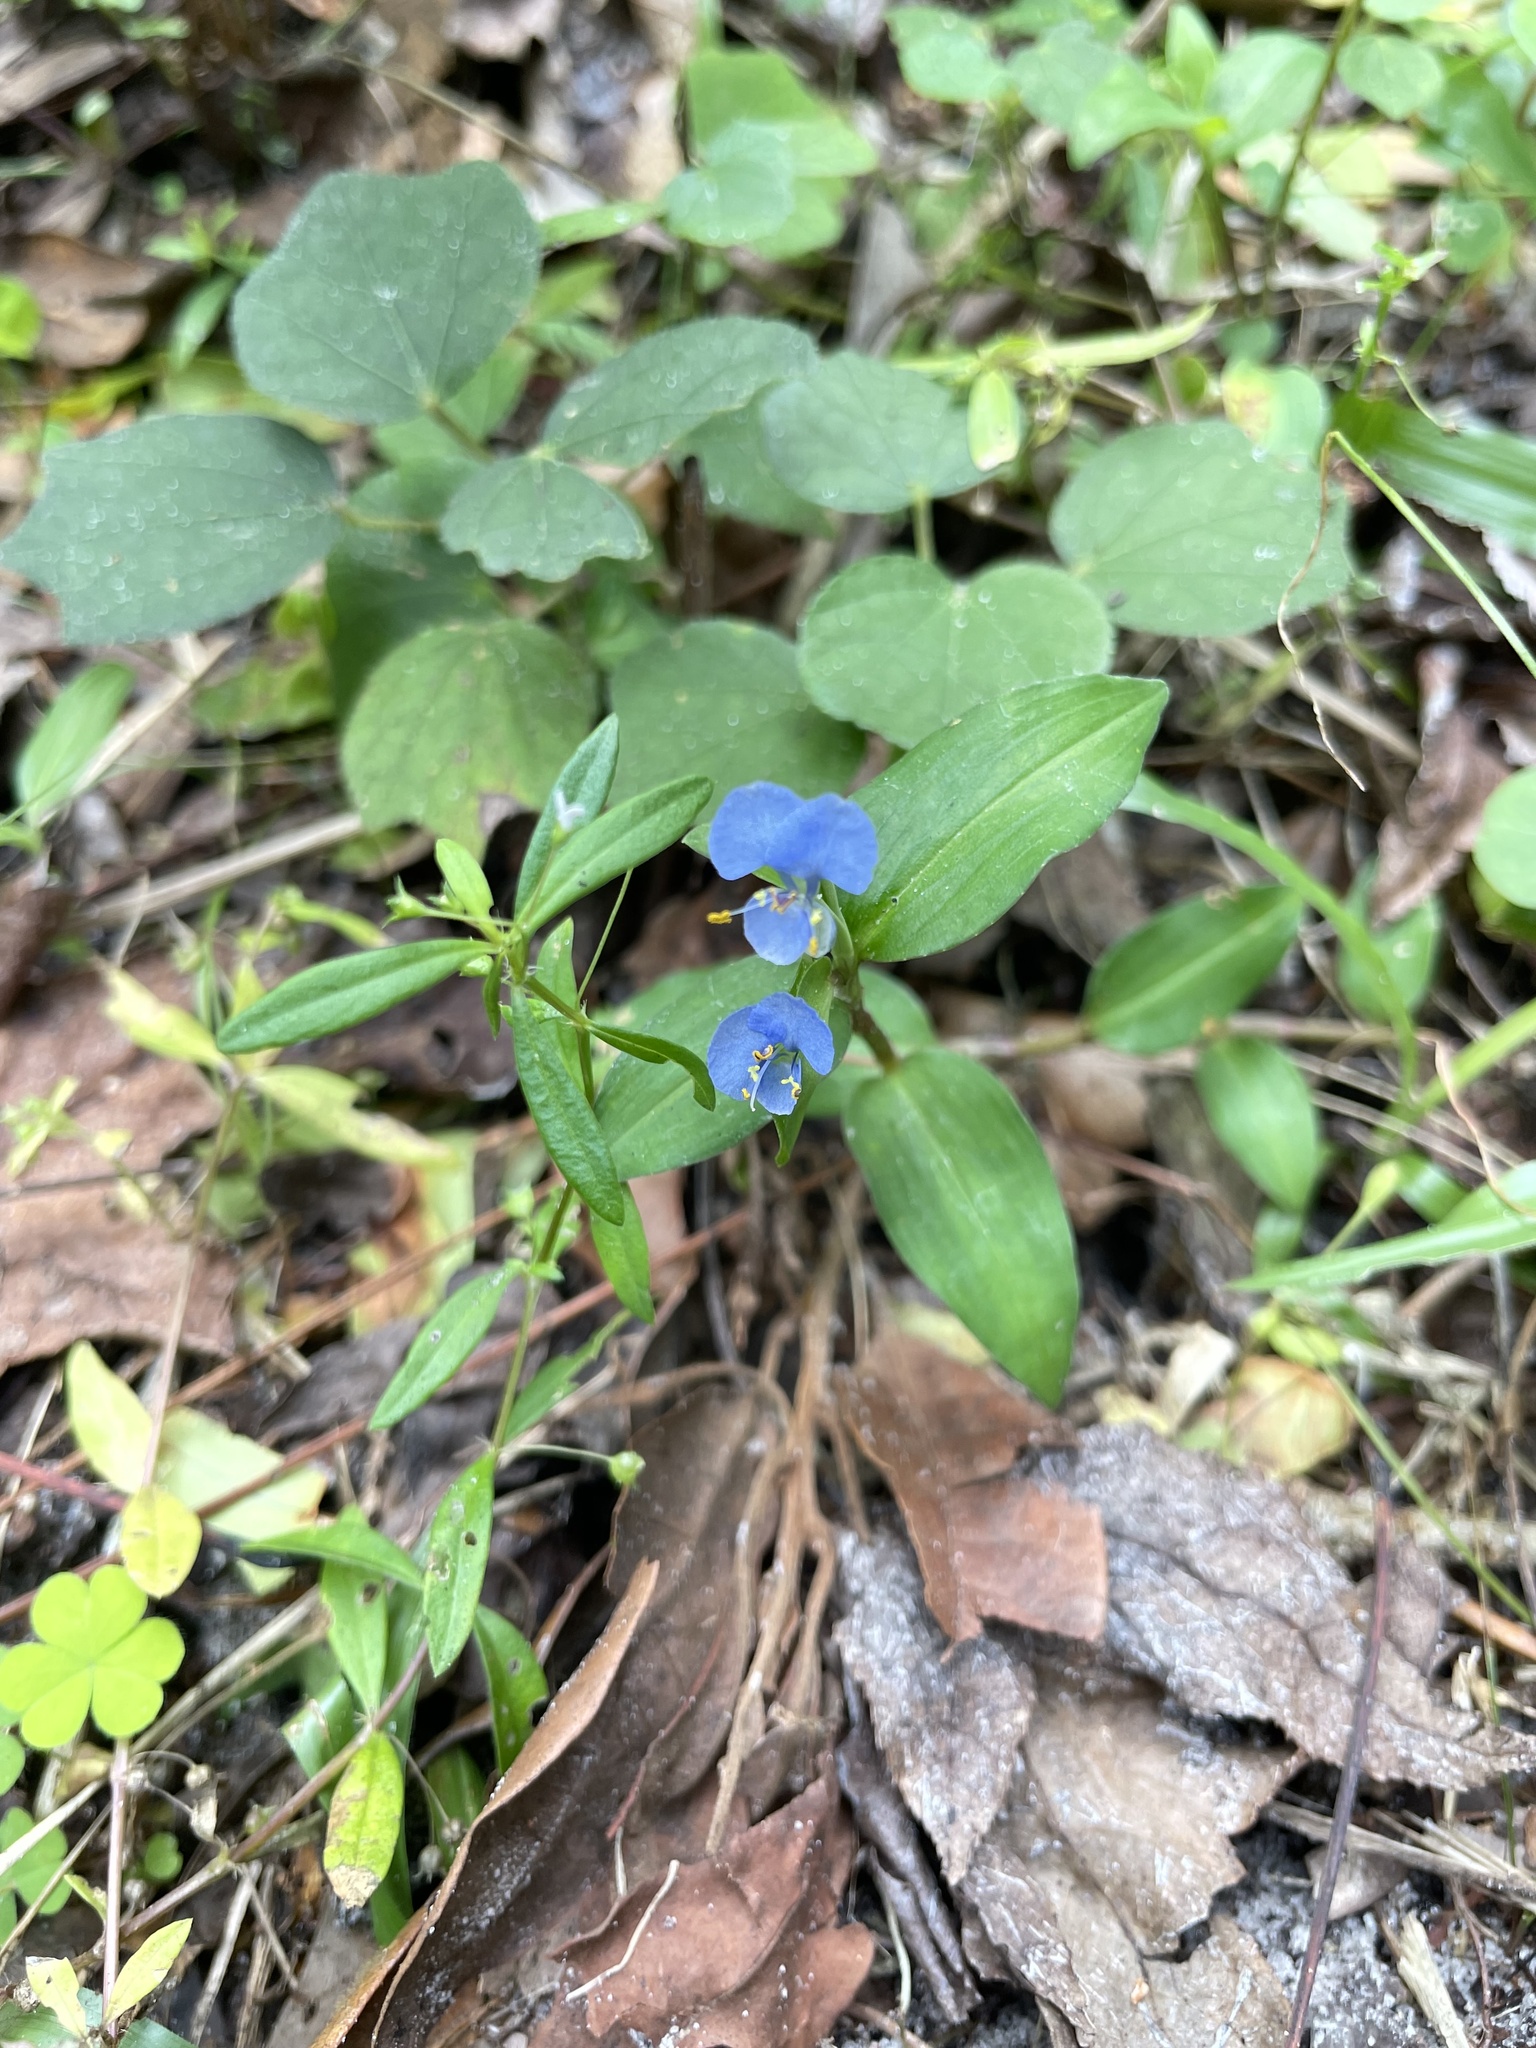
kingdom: Plantae
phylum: Tracheophyta
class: Liliopsida
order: Commelinales
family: Commelinaceae
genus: Commelina
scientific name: Commelina diffusa
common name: Climbing dayflower
